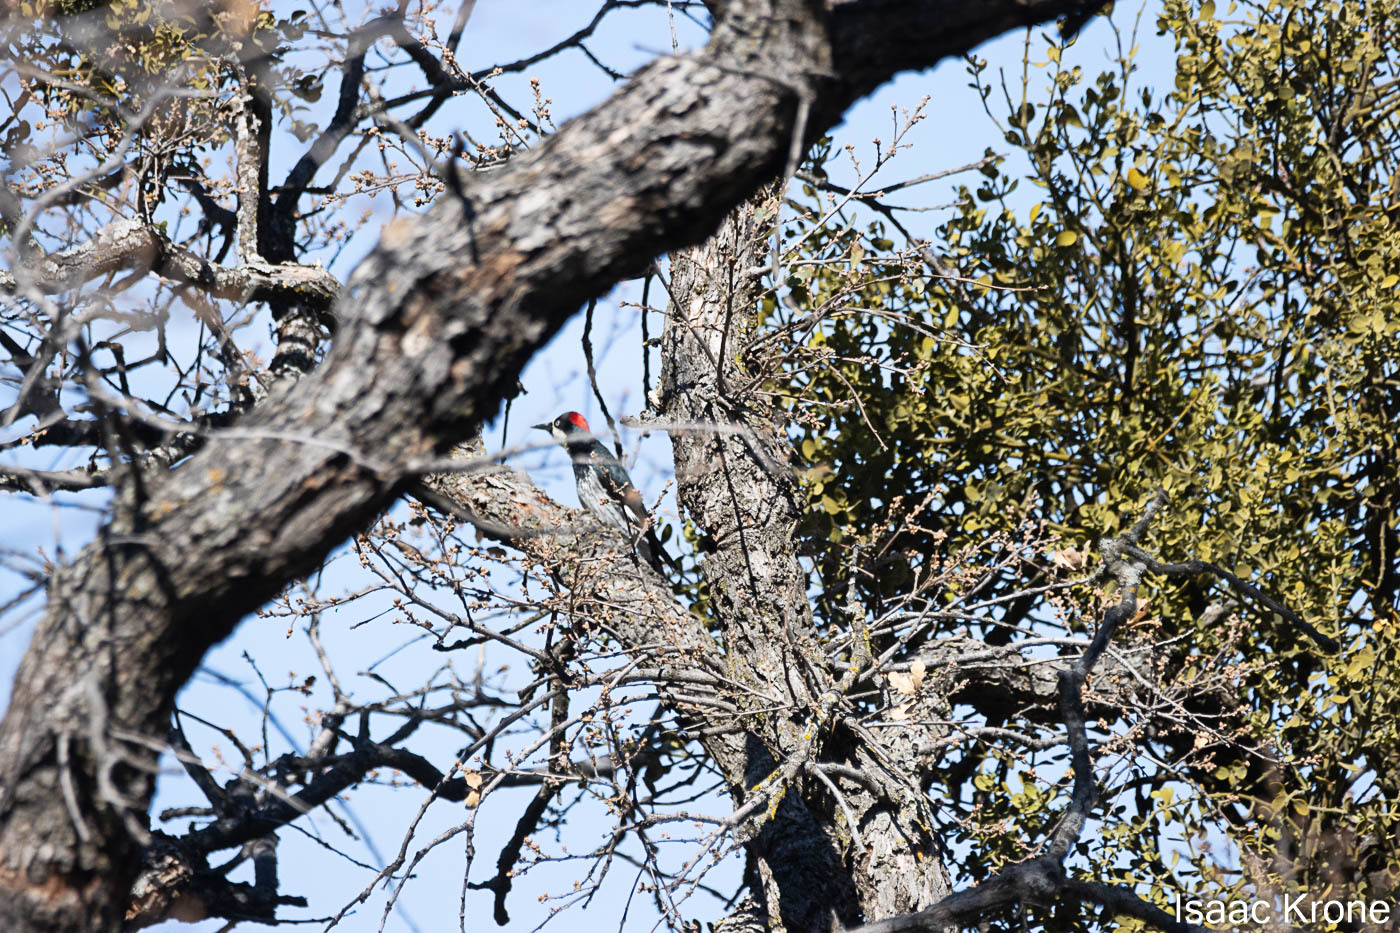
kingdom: Animalia
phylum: Chordata
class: Aves
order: Piciformes
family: Picidae
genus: Melanerpes
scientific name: Melanerpes formicivorus
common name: Acorn woodpecker
